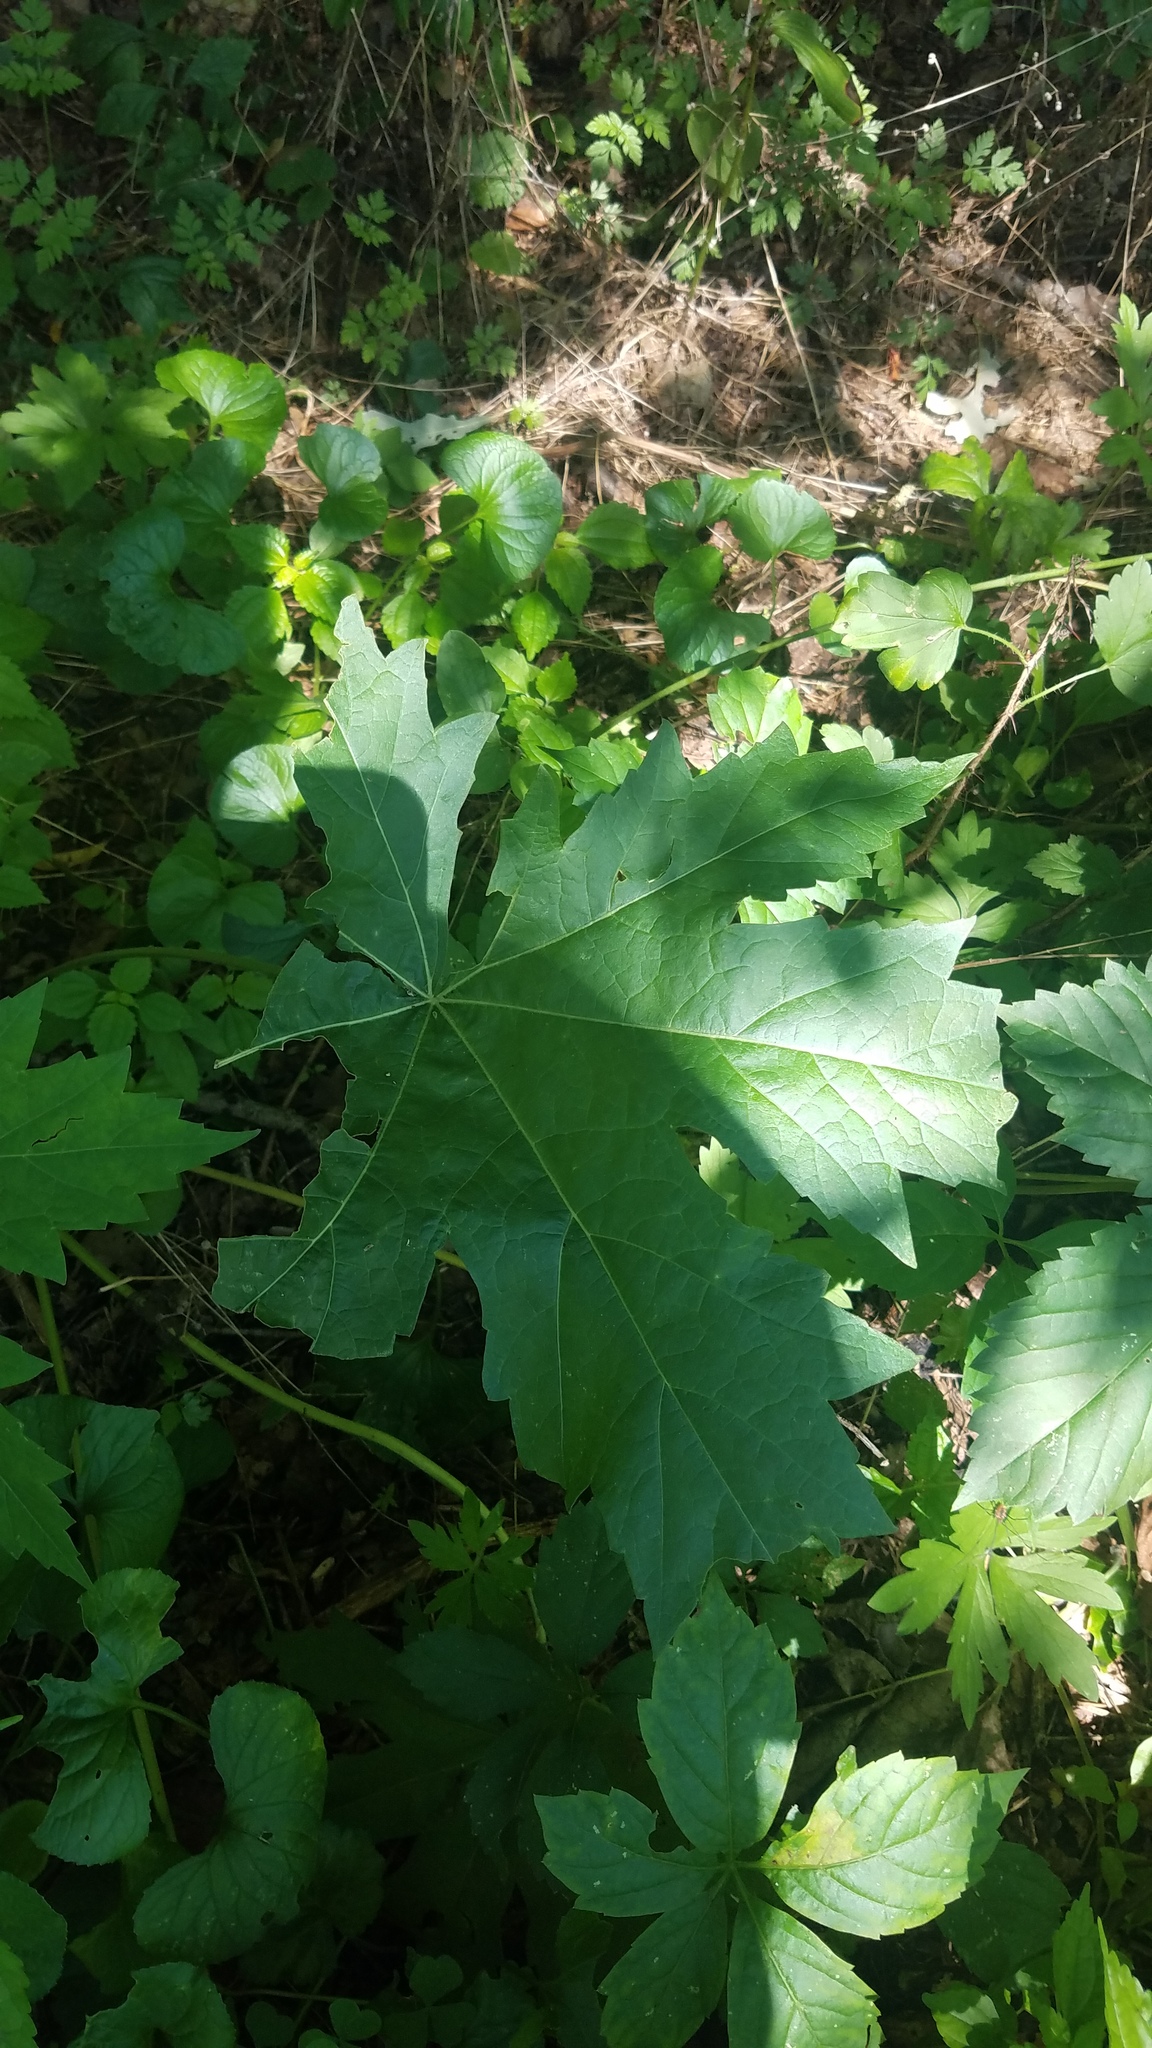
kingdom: Plantae
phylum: Tracheophyta
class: Magnoliopsida
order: Apiales
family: Apiaceae
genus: Heracleum
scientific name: Heracleum maximum
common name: American cow parsnip
